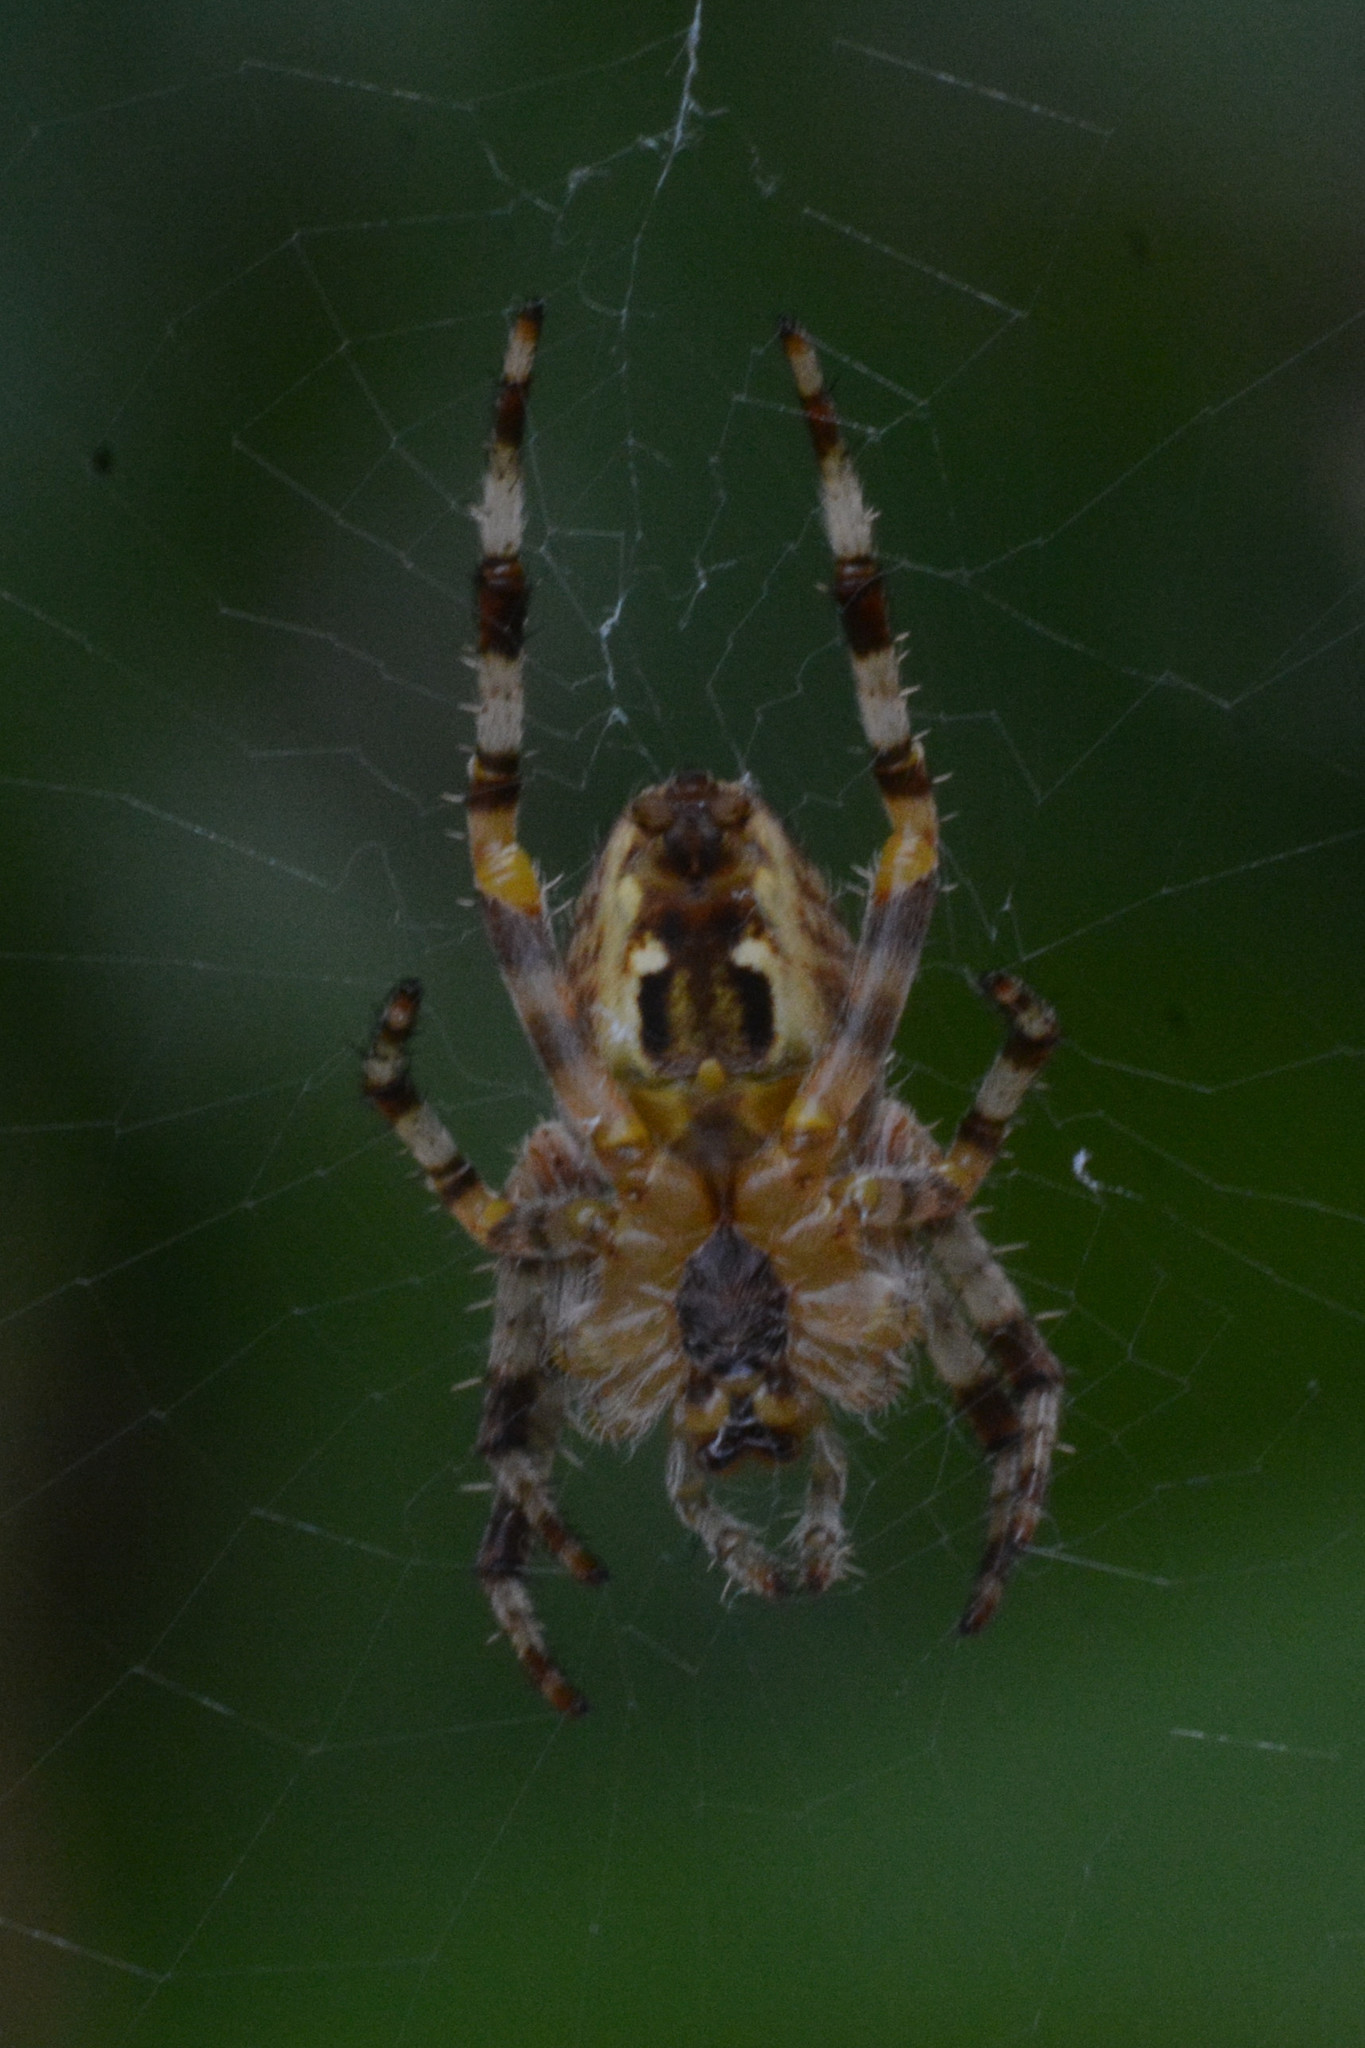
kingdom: Animalia
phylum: Arthropoda
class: Arachnida
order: Araneae
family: Araneidae
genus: Araneus
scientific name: Araneus diadematus
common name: Cross orbweaver
